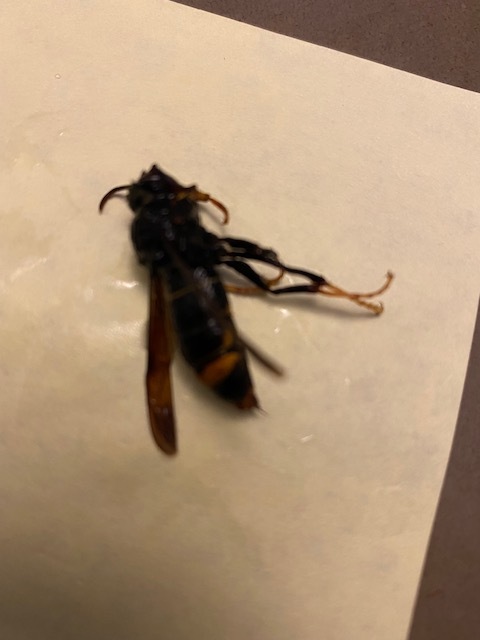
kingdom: Animalia
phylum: Arthropoda
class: Insecta
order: Hymenoptera
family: Vespidae
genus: Vespa
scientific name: Vespa velutina
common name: Asian hornet
